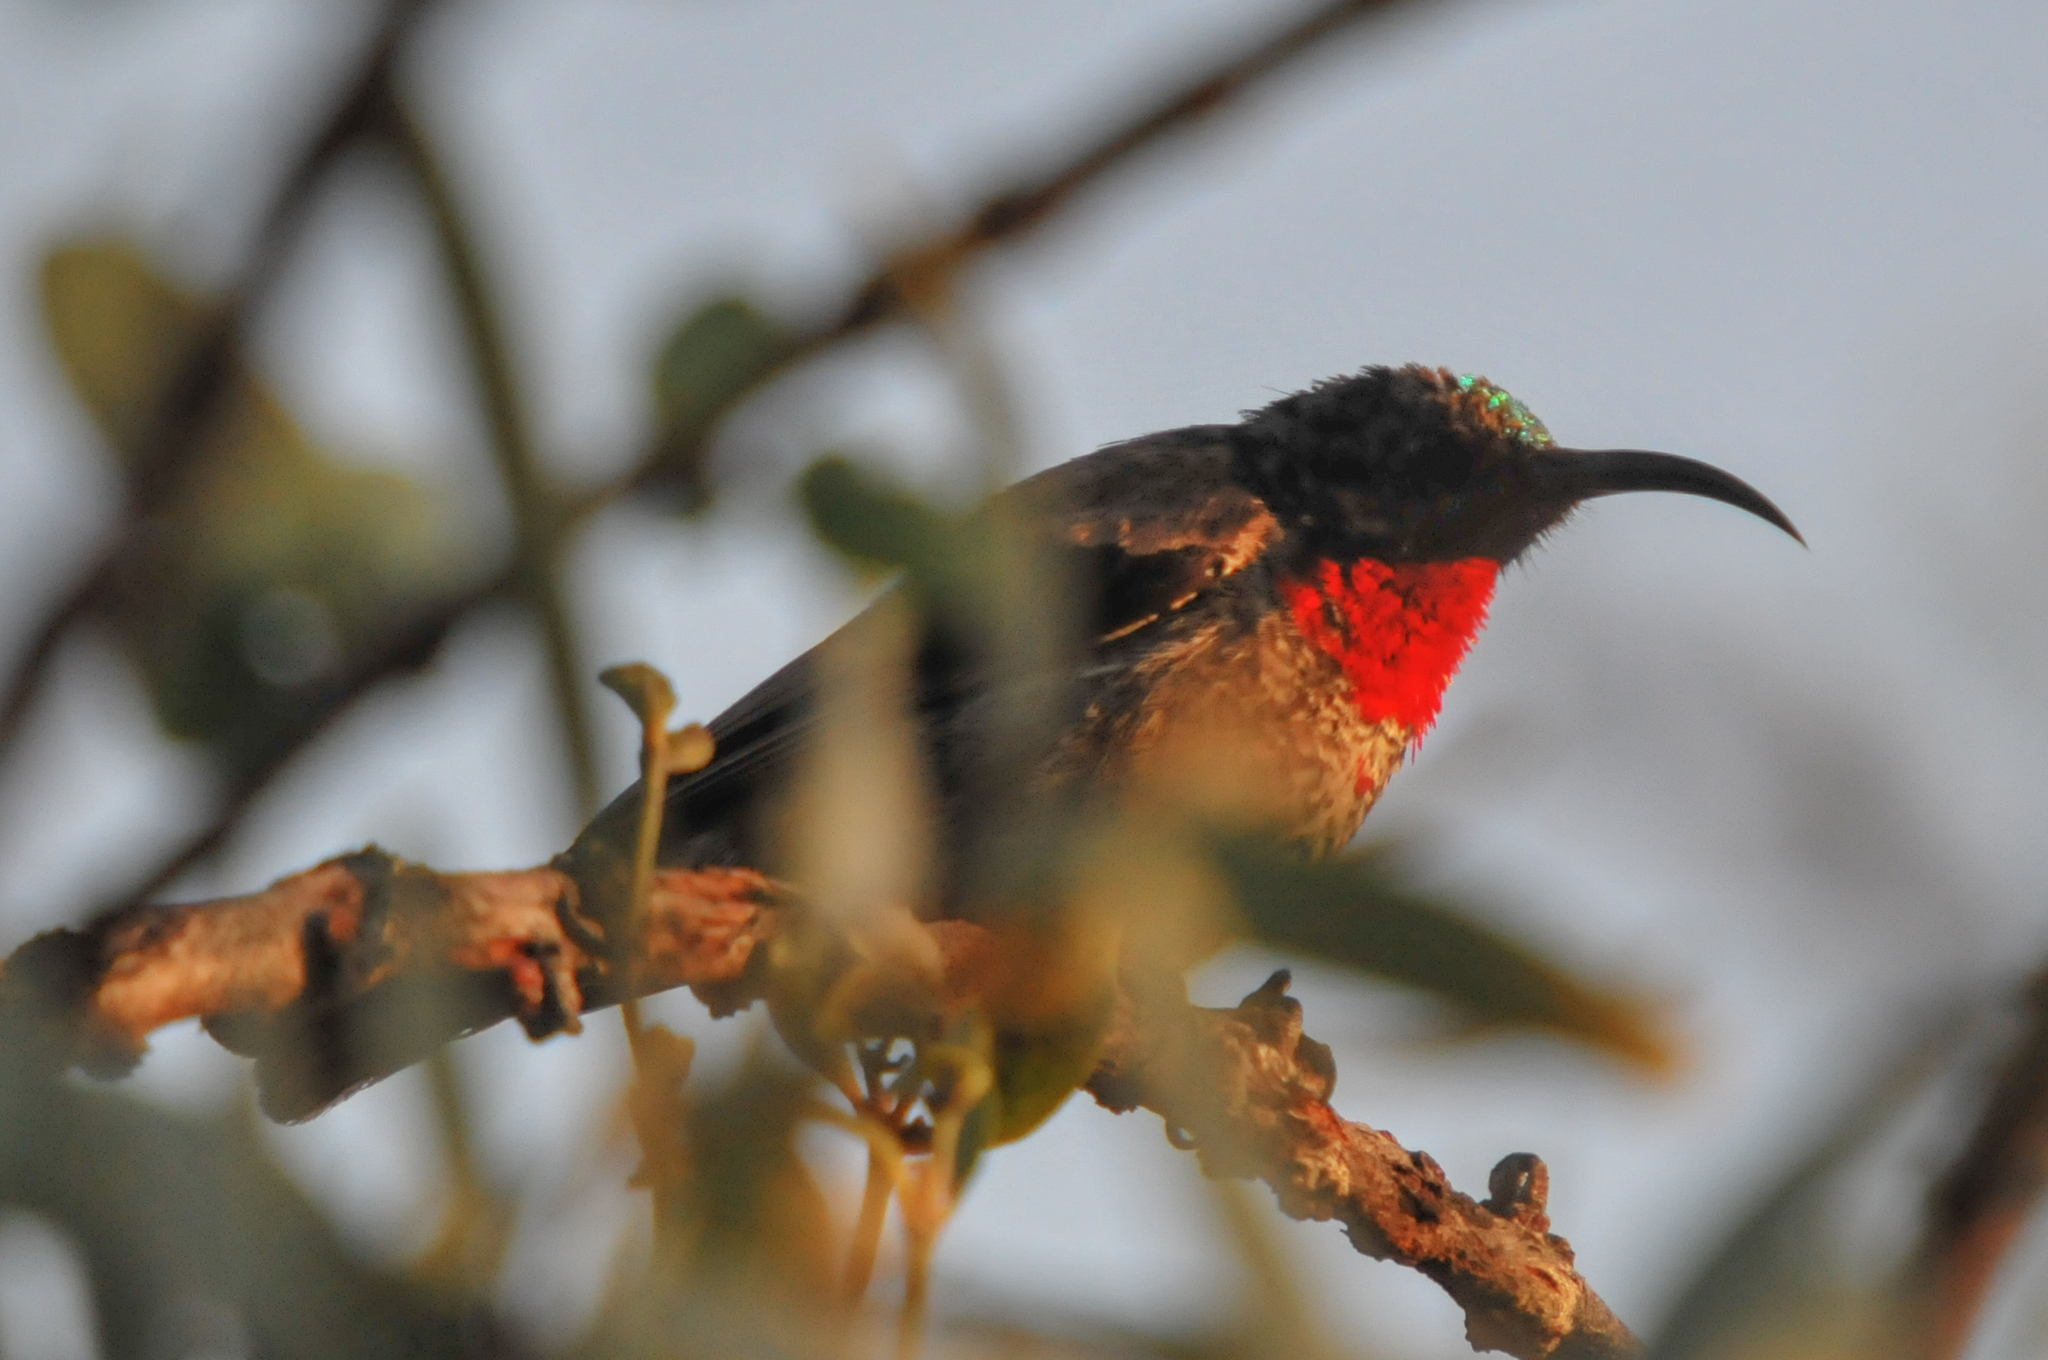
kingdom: Animalia
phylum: Chordata
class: Aves
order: Passeriformes
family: Nectariniidae
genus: Chalcomitra
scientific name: Chalcomitra senegalensis
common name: Scarlet-chested sunbird
